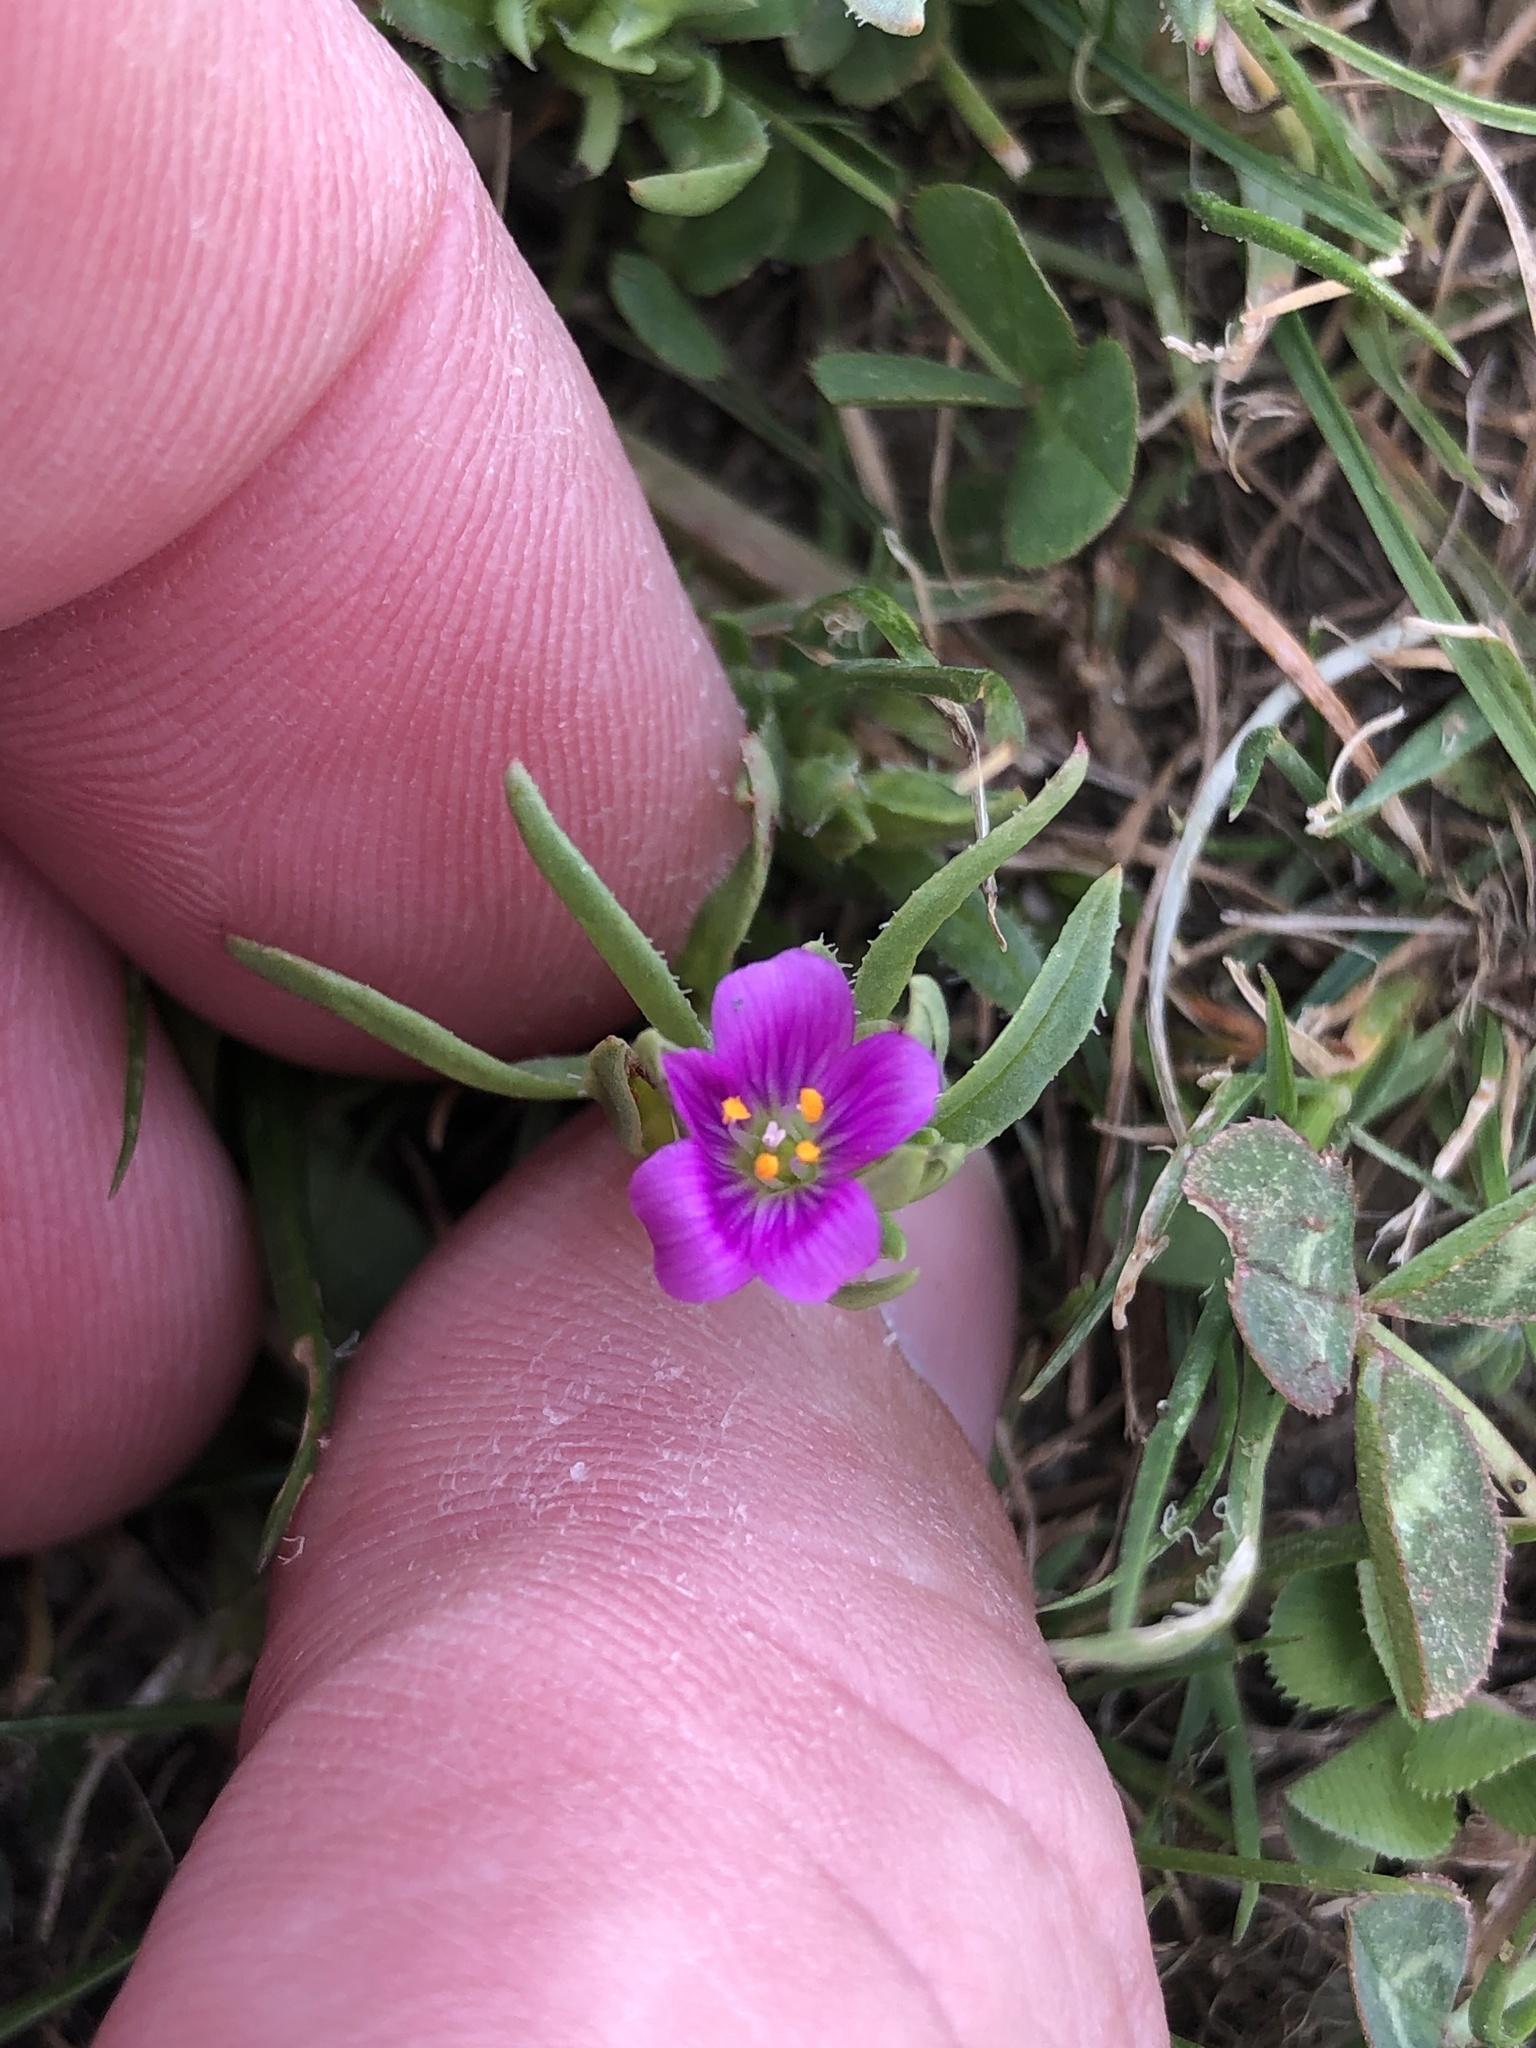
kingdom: Plantae
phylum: Tracheophyta
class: Magnoliopsida
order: Caryophyllales
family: Montiaceae
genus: Calandrinia
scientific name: Calandrinia menziesii
